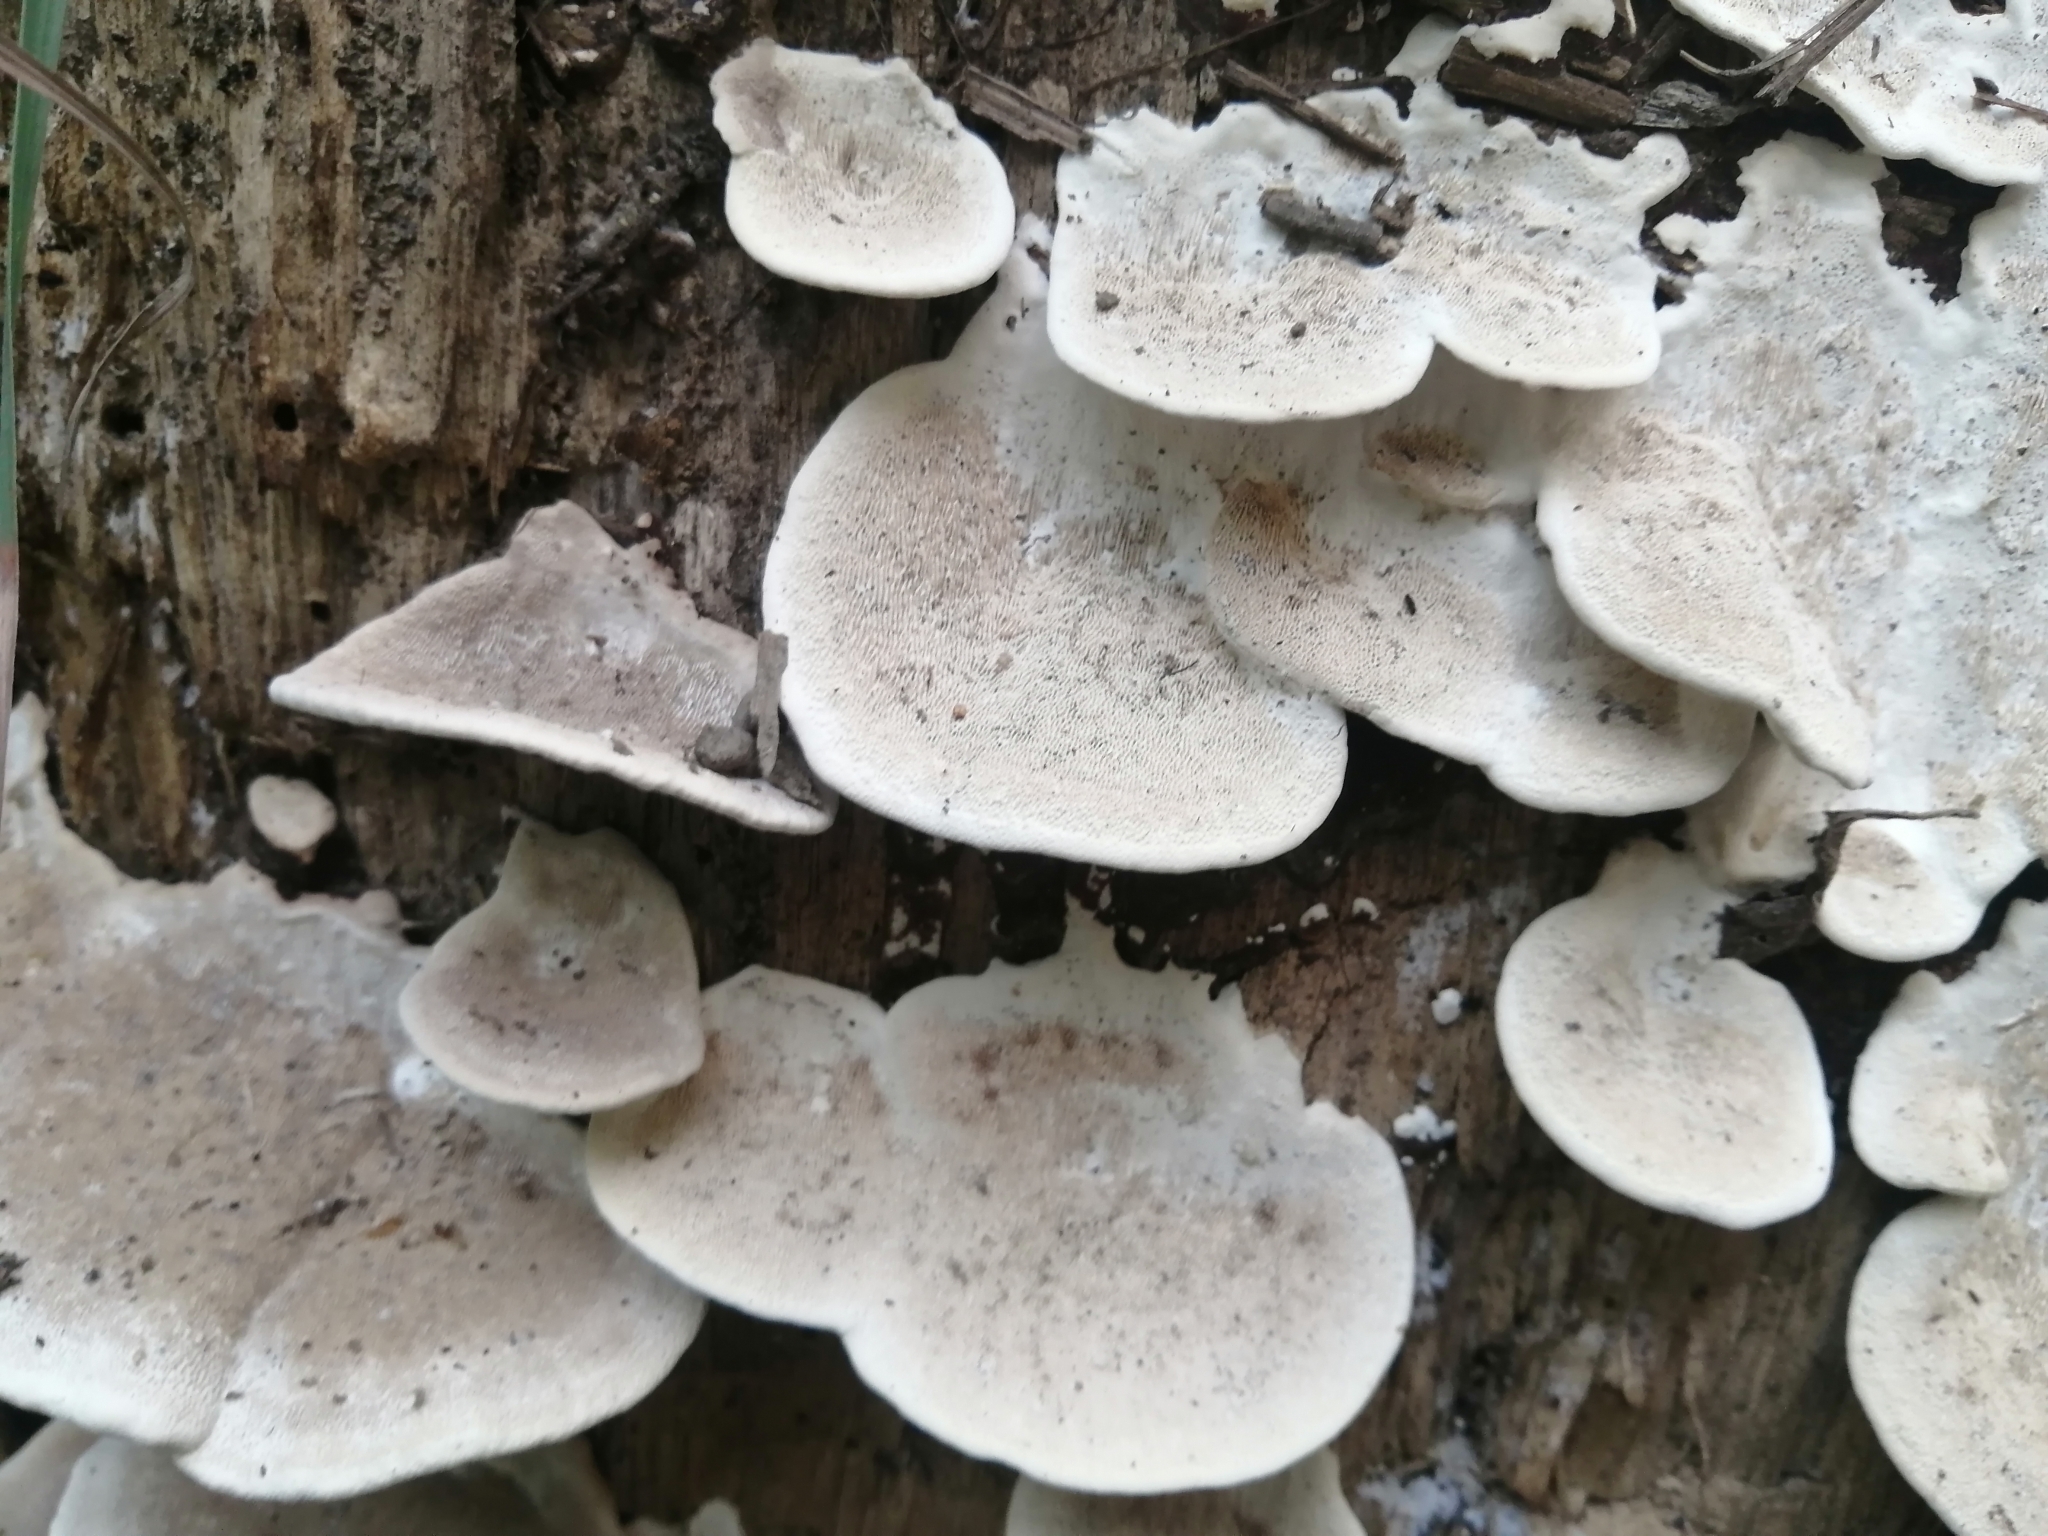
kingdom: Fungi
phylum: Basidiomycota
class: Agaricomycetes
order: Polyporales
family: Polyporaceae
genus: Trametes
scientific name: Trametes elegans
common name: White maze polypore
